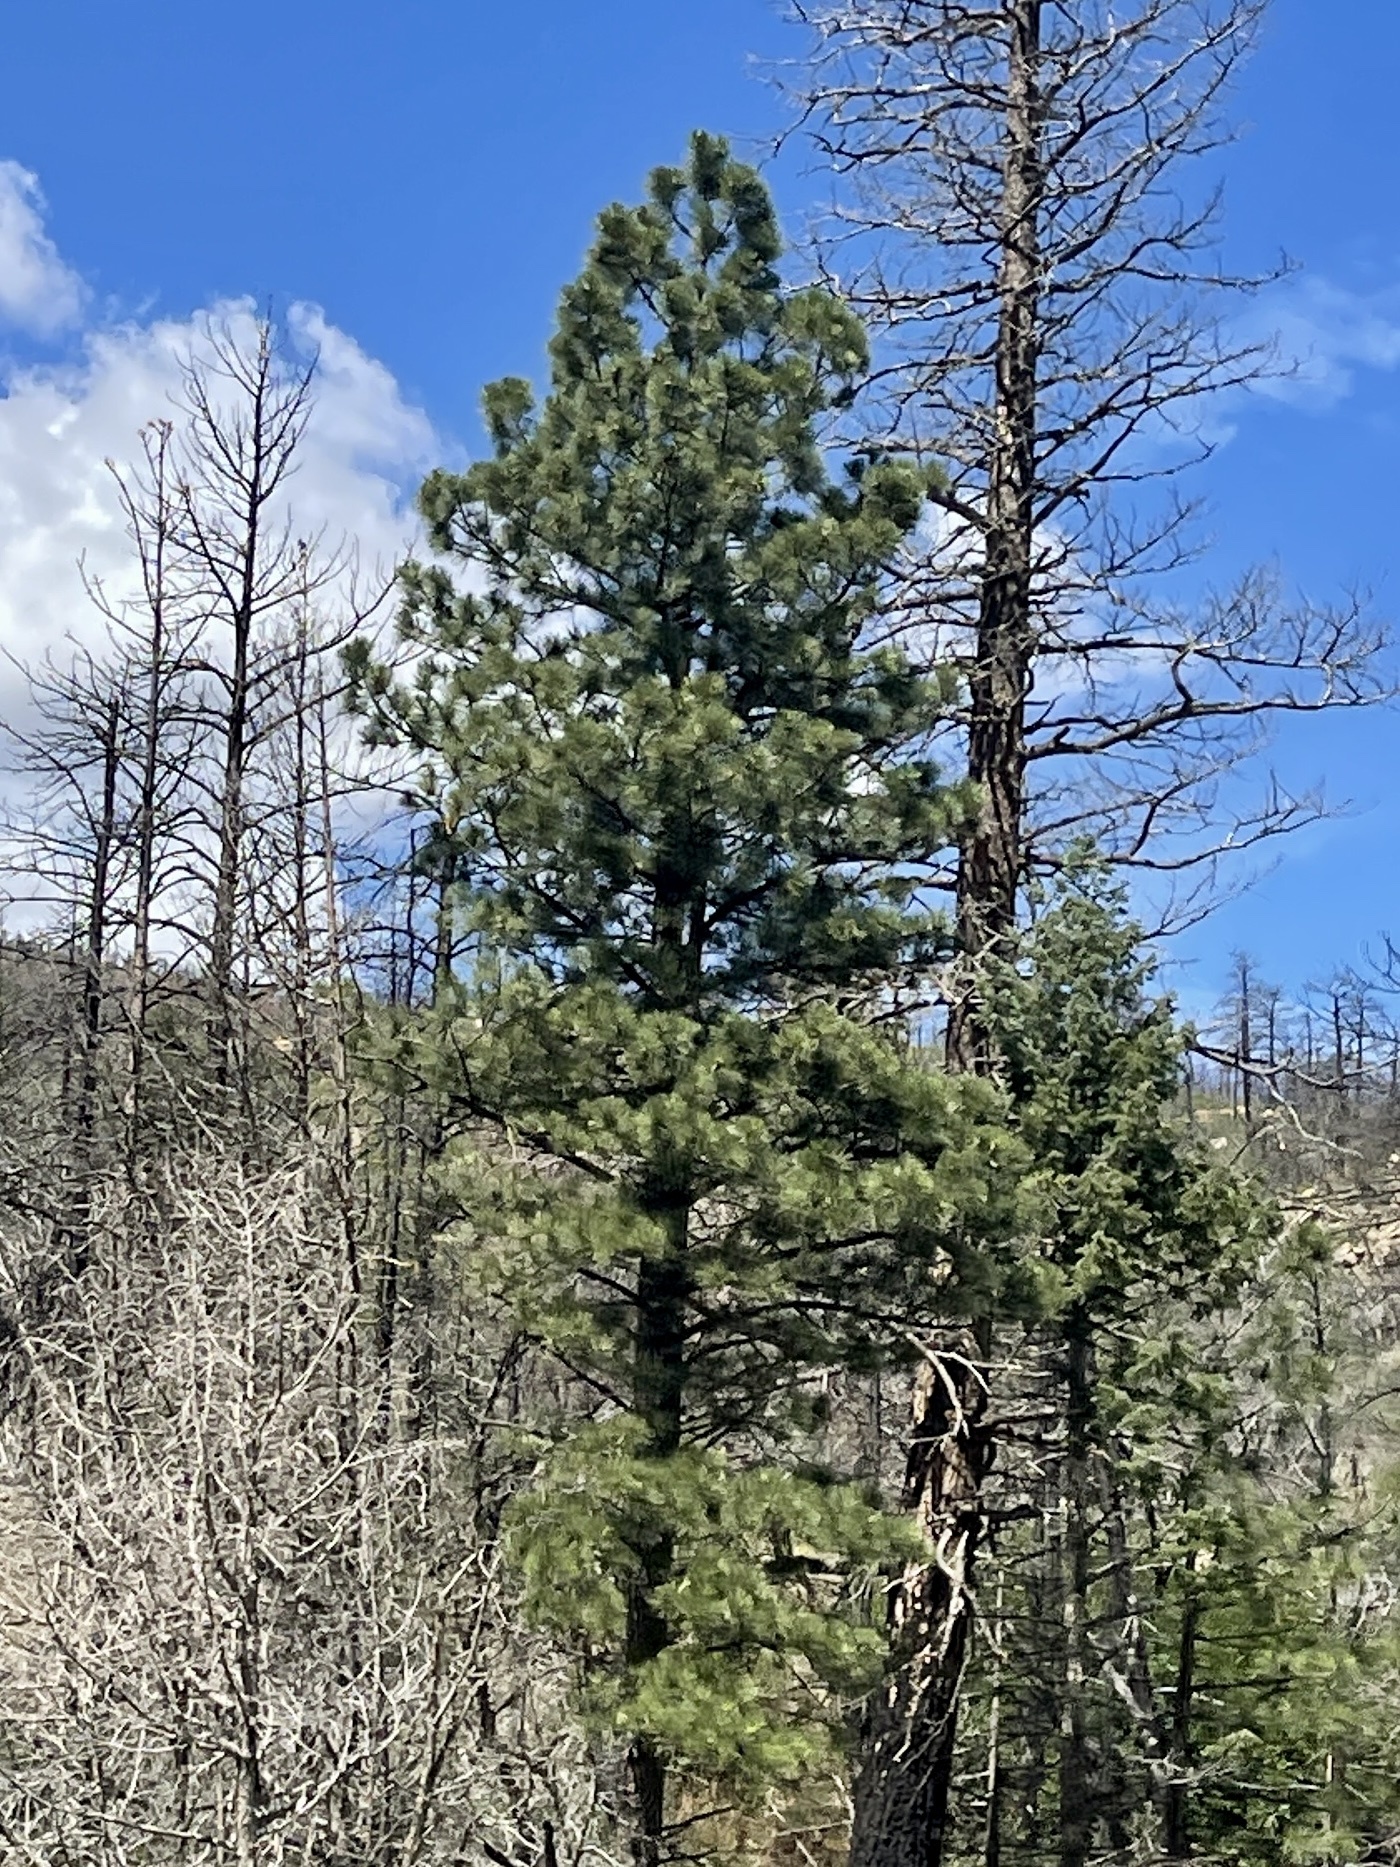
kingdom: Plantae
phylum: Tracheophyta
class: Pinopsida
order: Pinales
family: Pinaceae
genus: Pinus
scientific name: Pinus ponderosa
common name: Western yellow-pine
